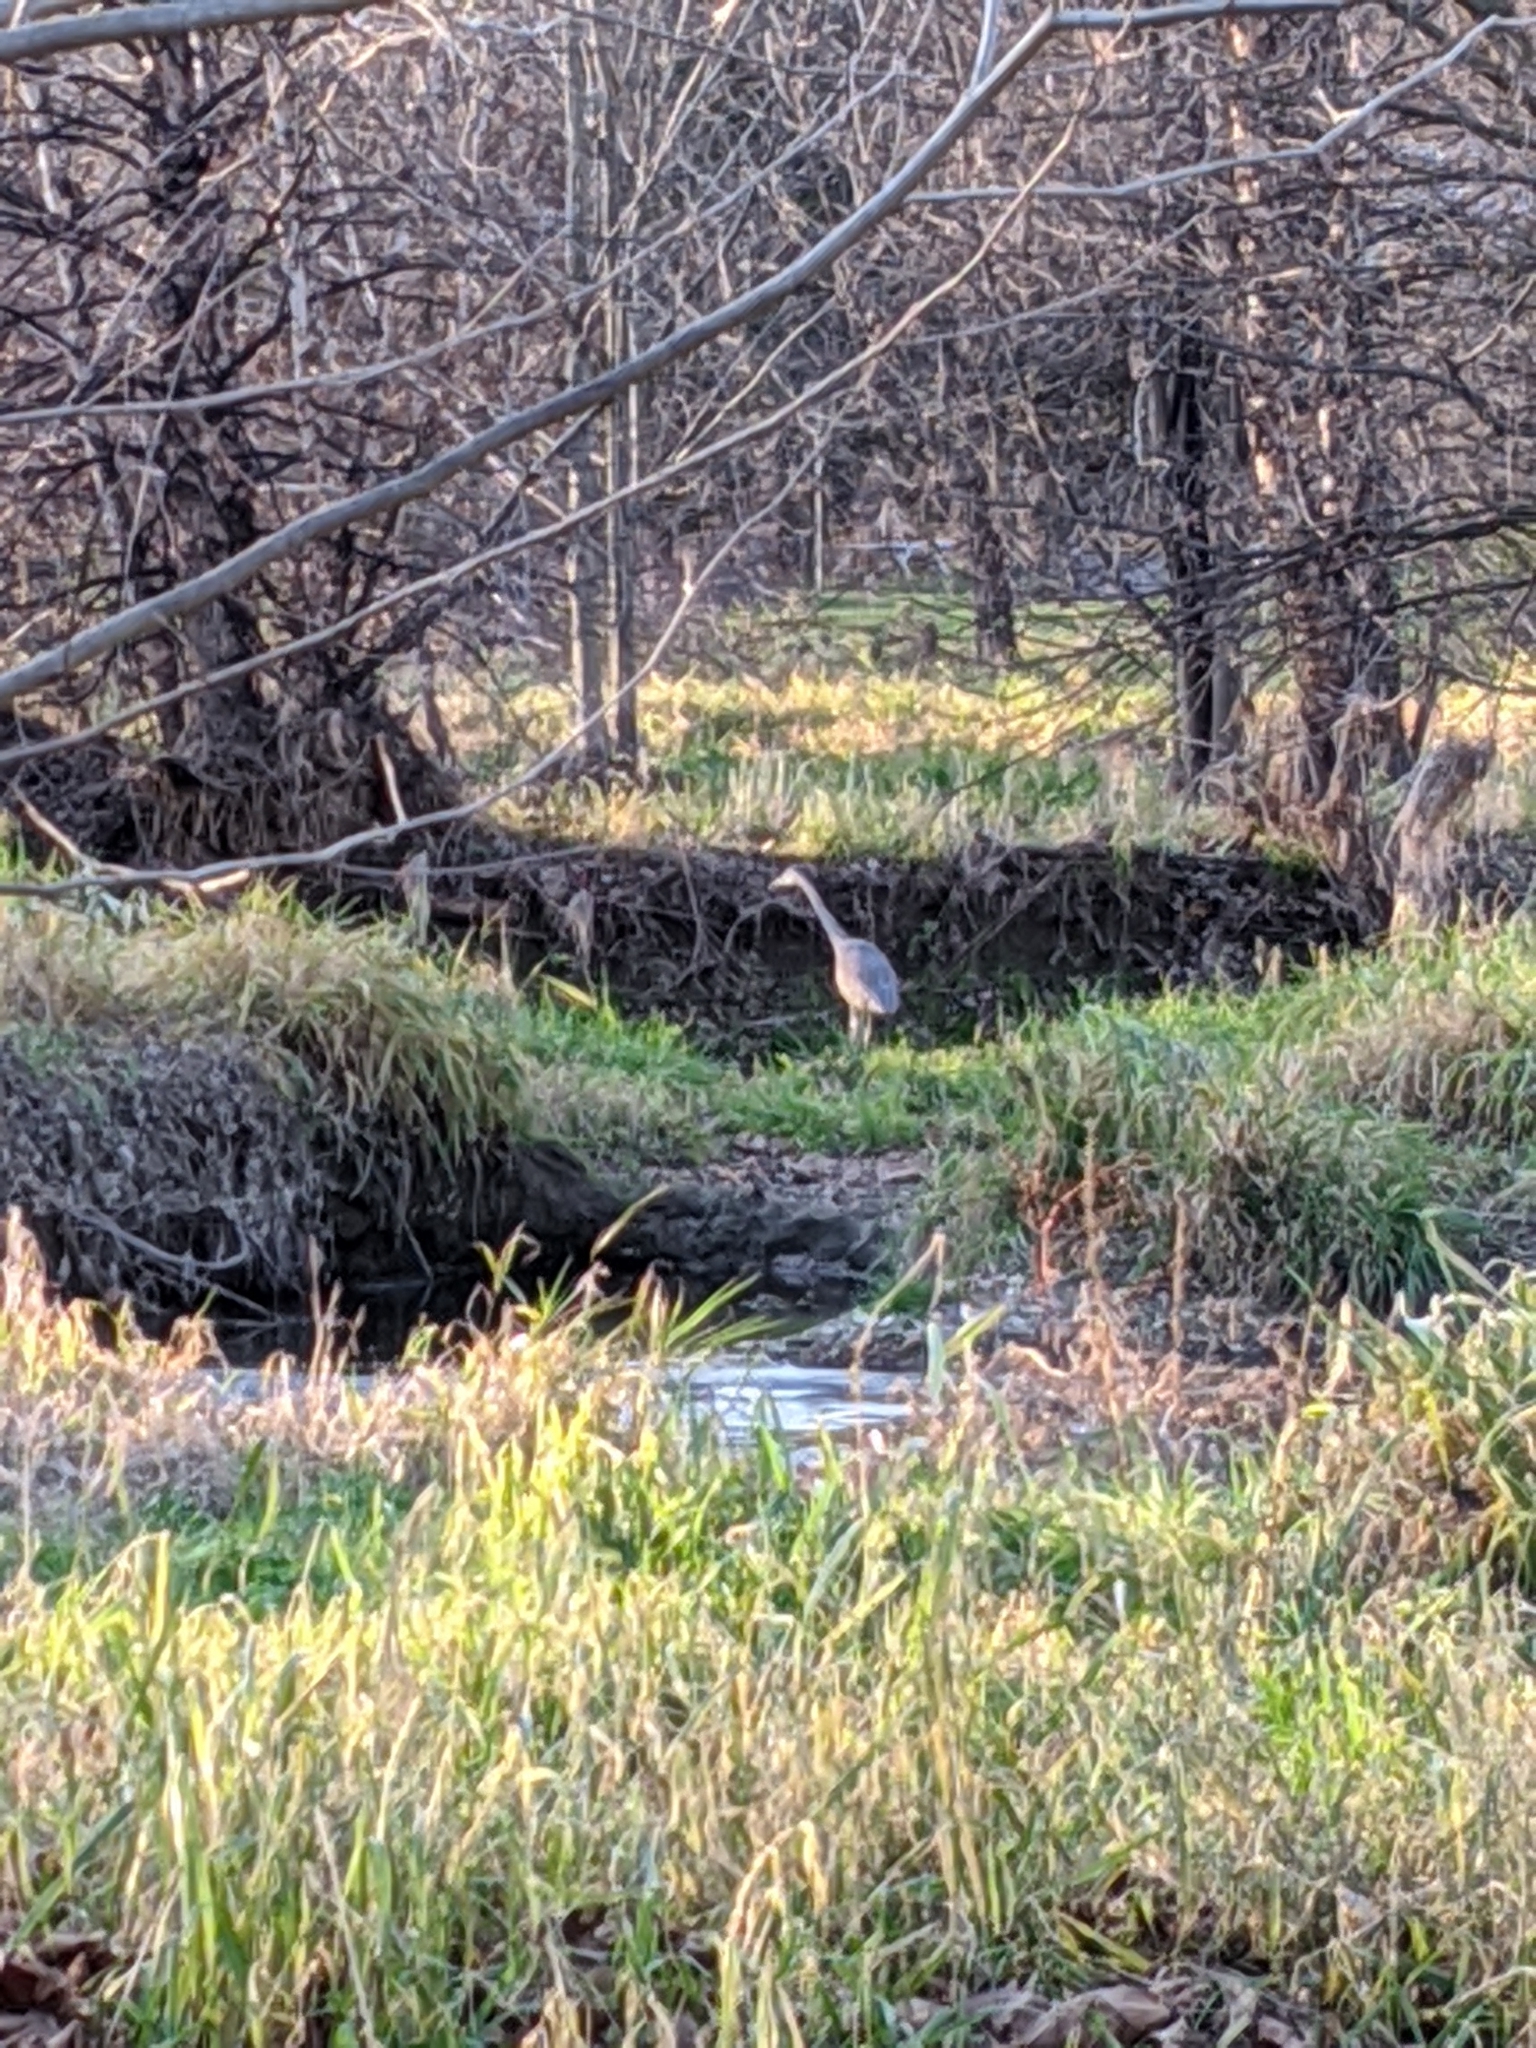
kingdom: Animalia
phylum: Chordata
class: Aves
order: Pelecaniformes
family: Ardeidae
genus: Ardea
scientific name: Ardea herodias
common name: Great blue heron
